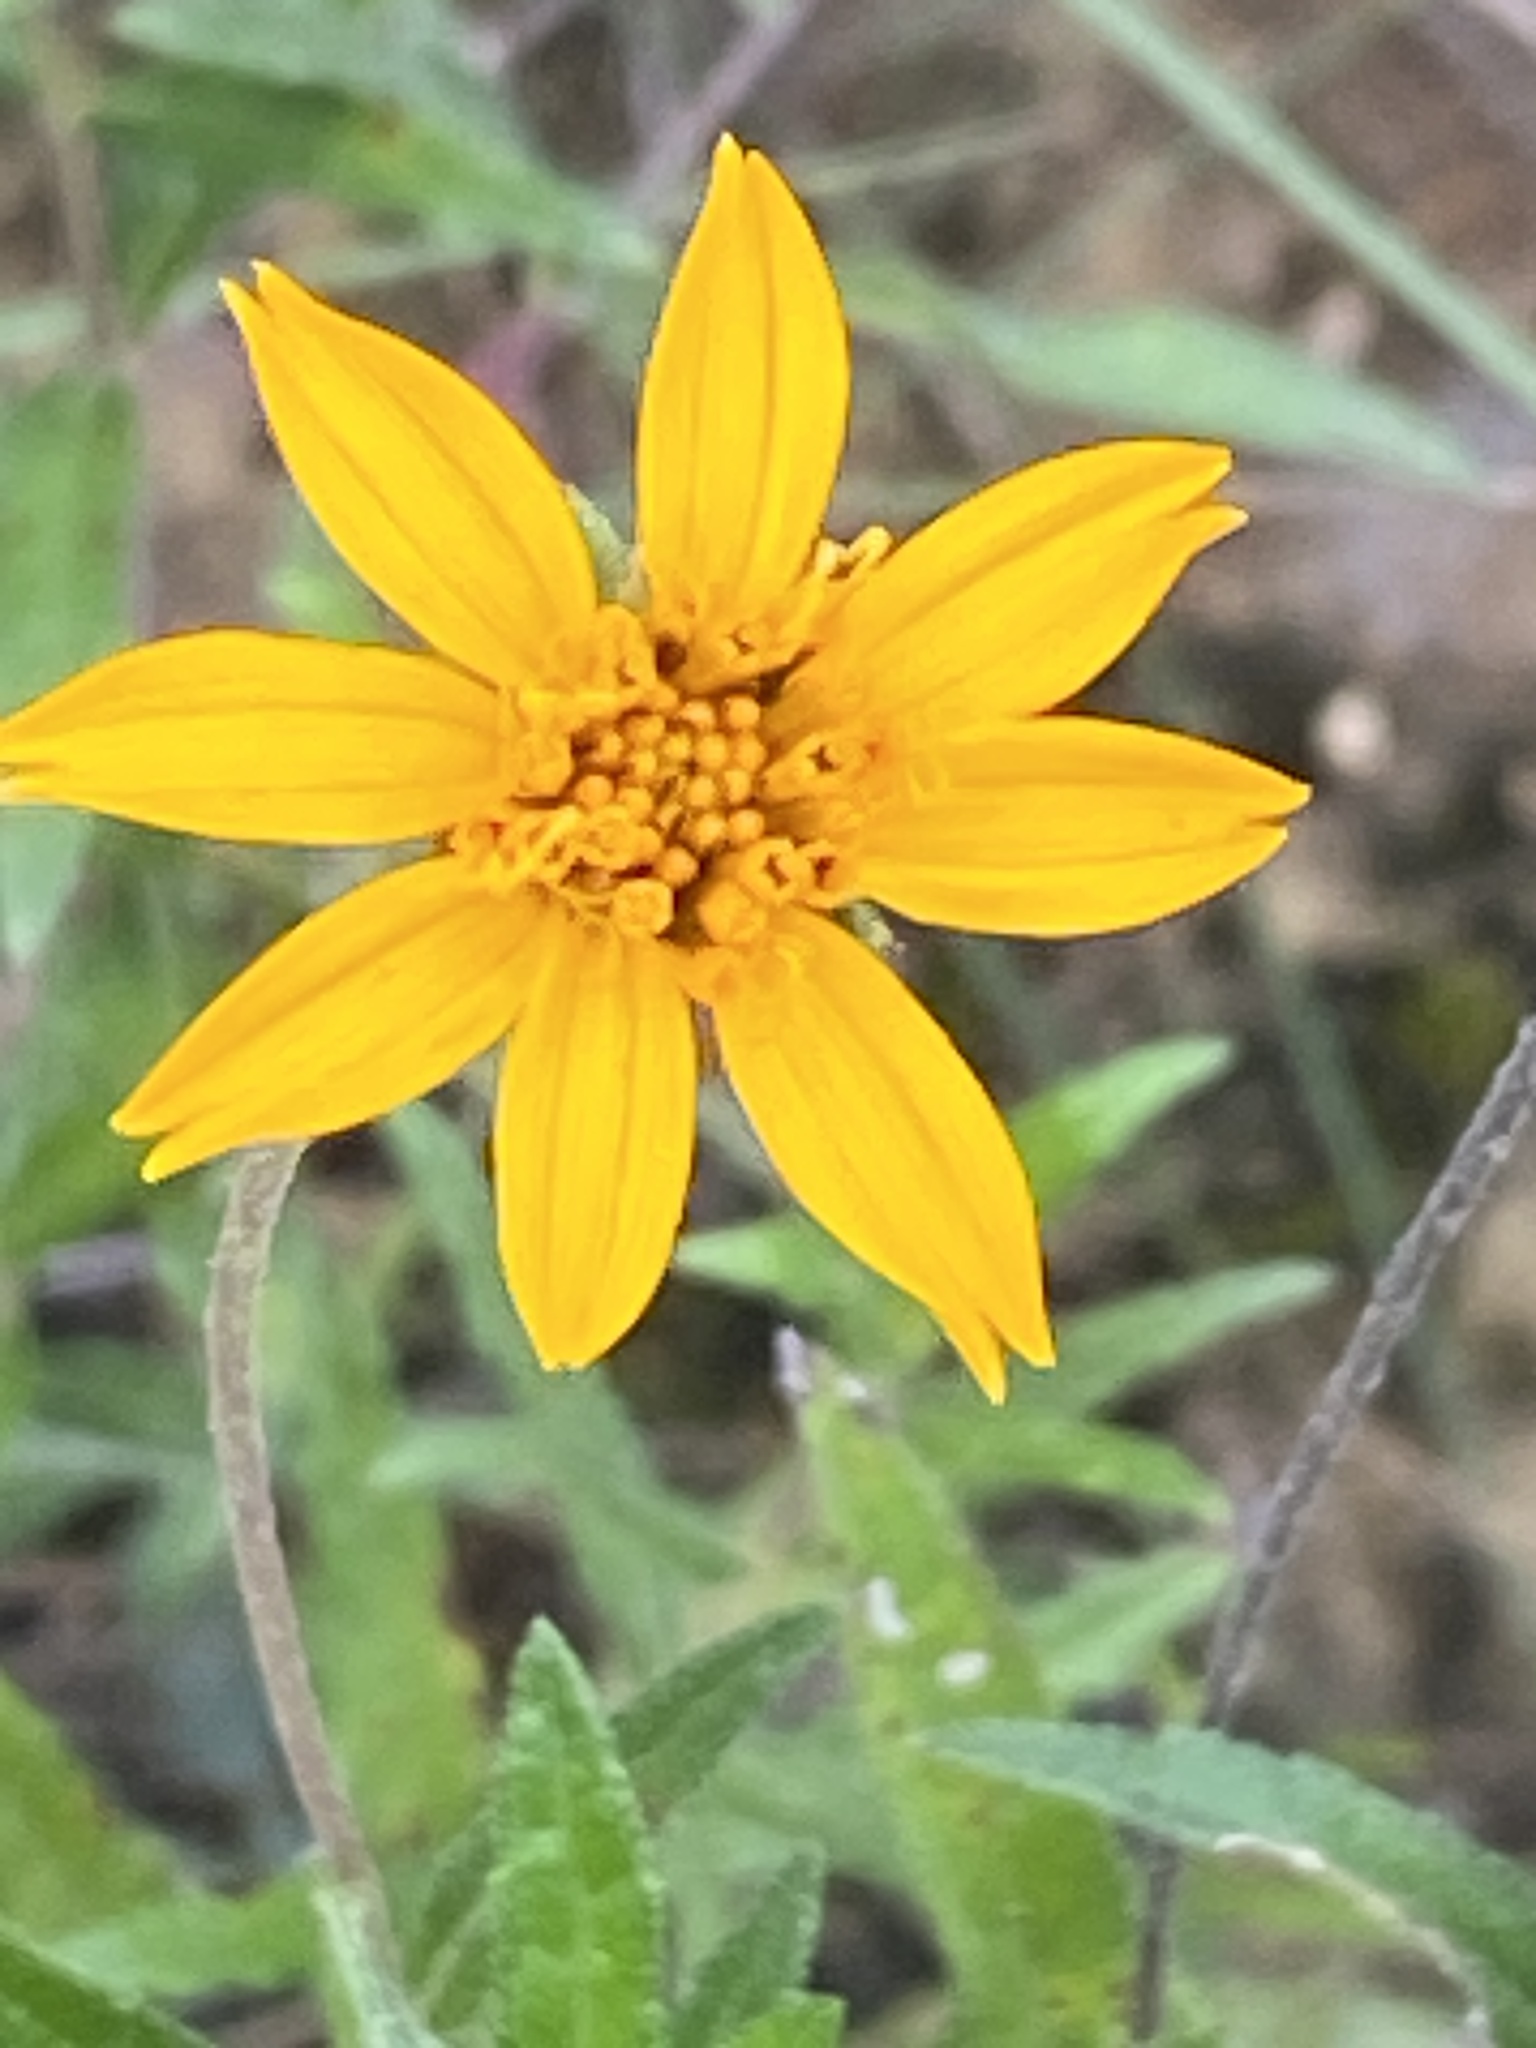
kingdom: Plantae
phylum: Tracheophyta
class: Magnoliopsida
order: Asterales
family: Asteraceae
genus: Wedelia
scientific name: Wedelia acapulcensis
